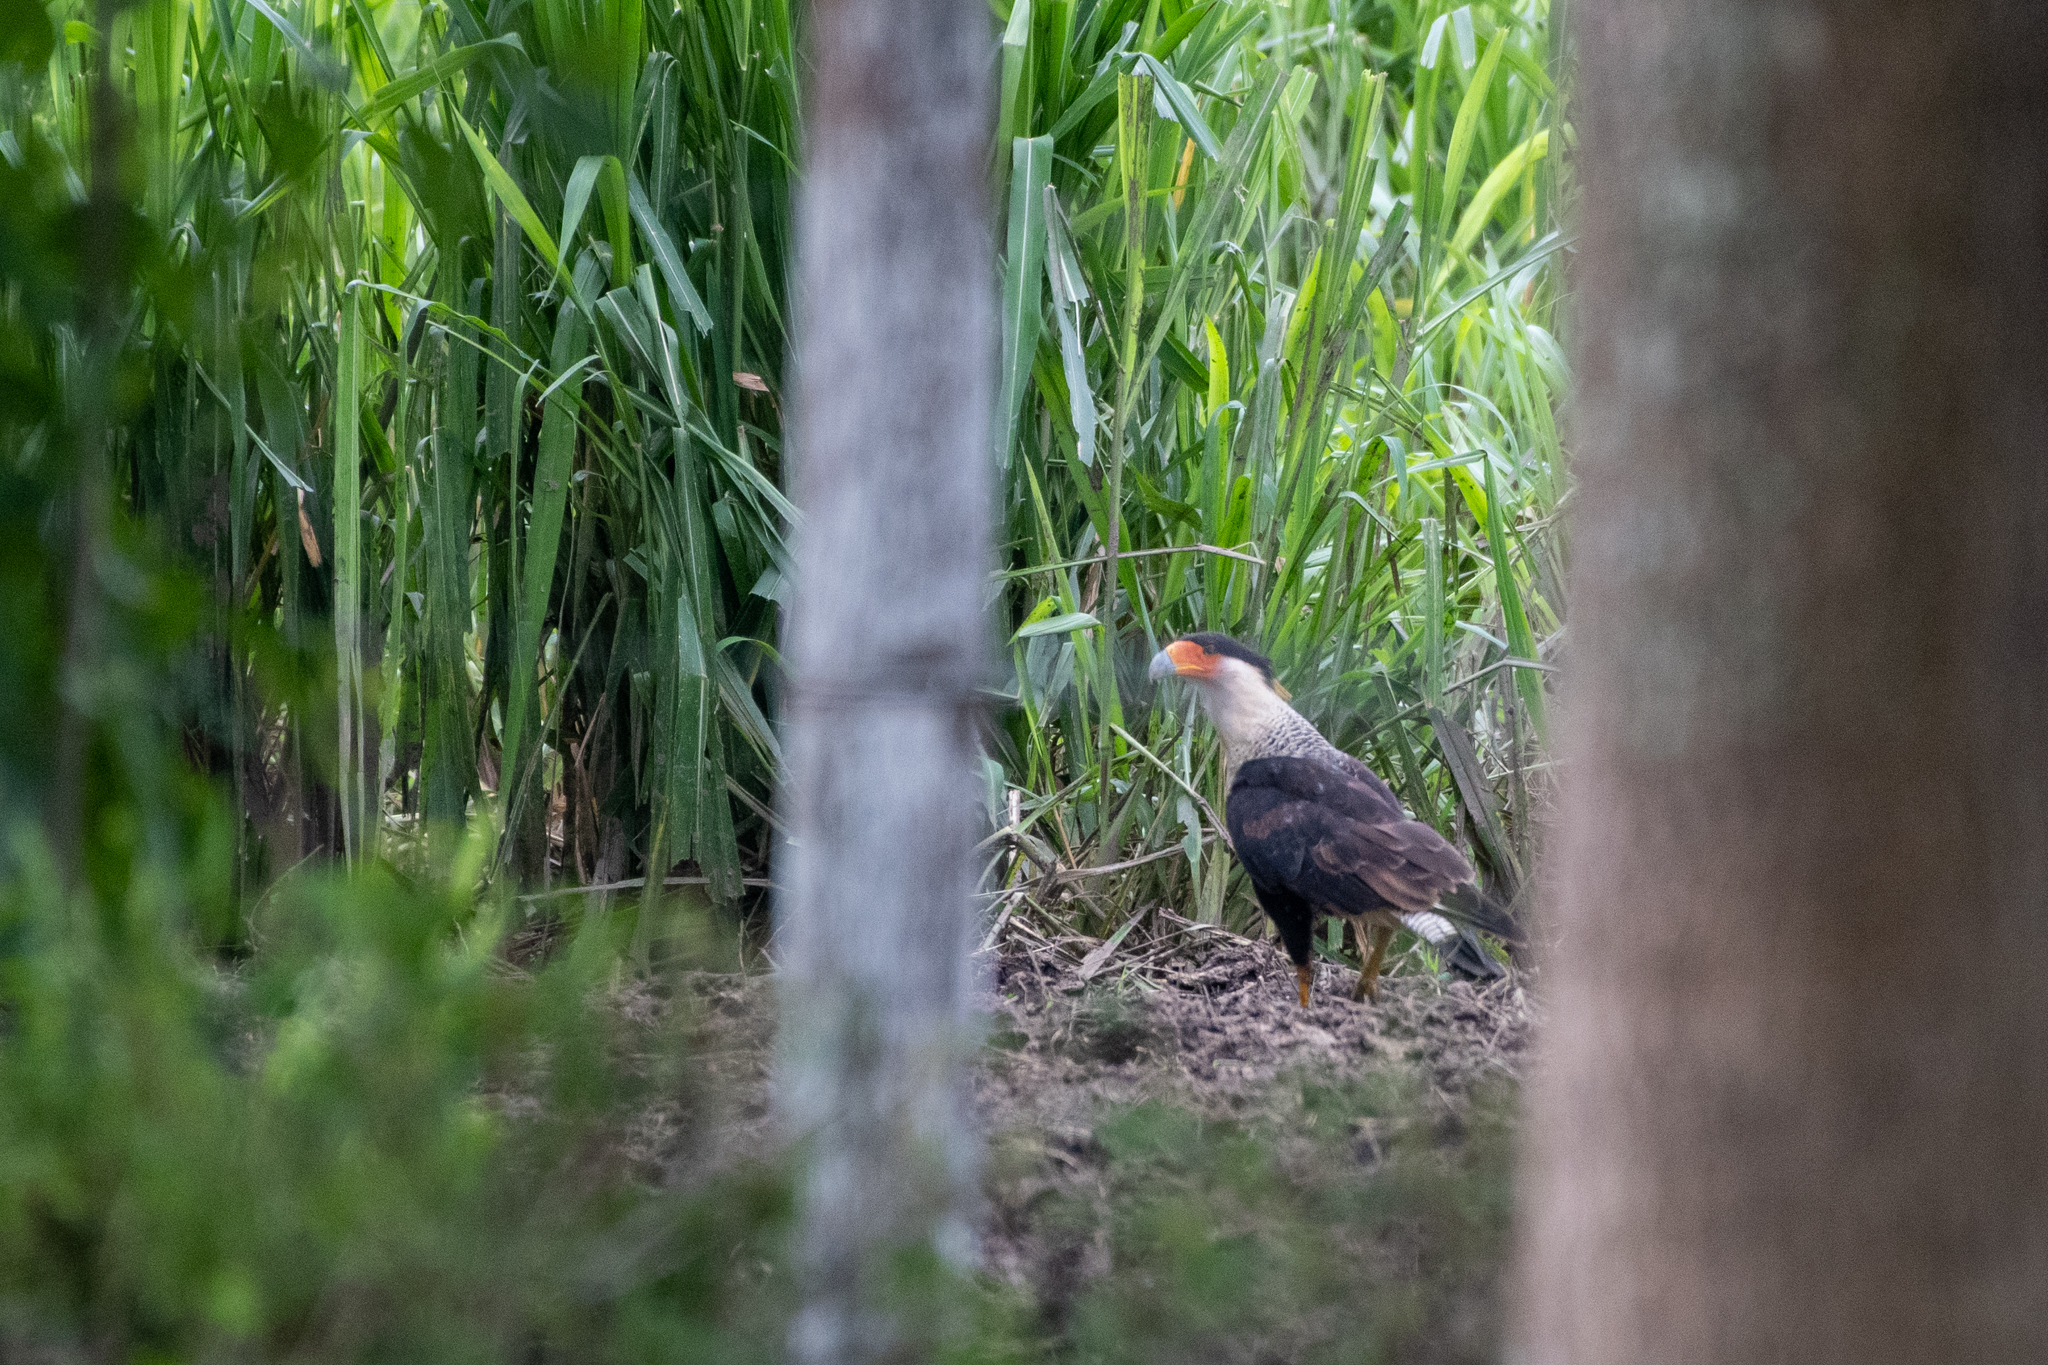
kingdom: Animalia
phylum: Chordata
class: Aves
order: Falconiformes
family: Falconidae
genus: Caracara
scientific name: Caracara plancus
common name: Southern caracara
